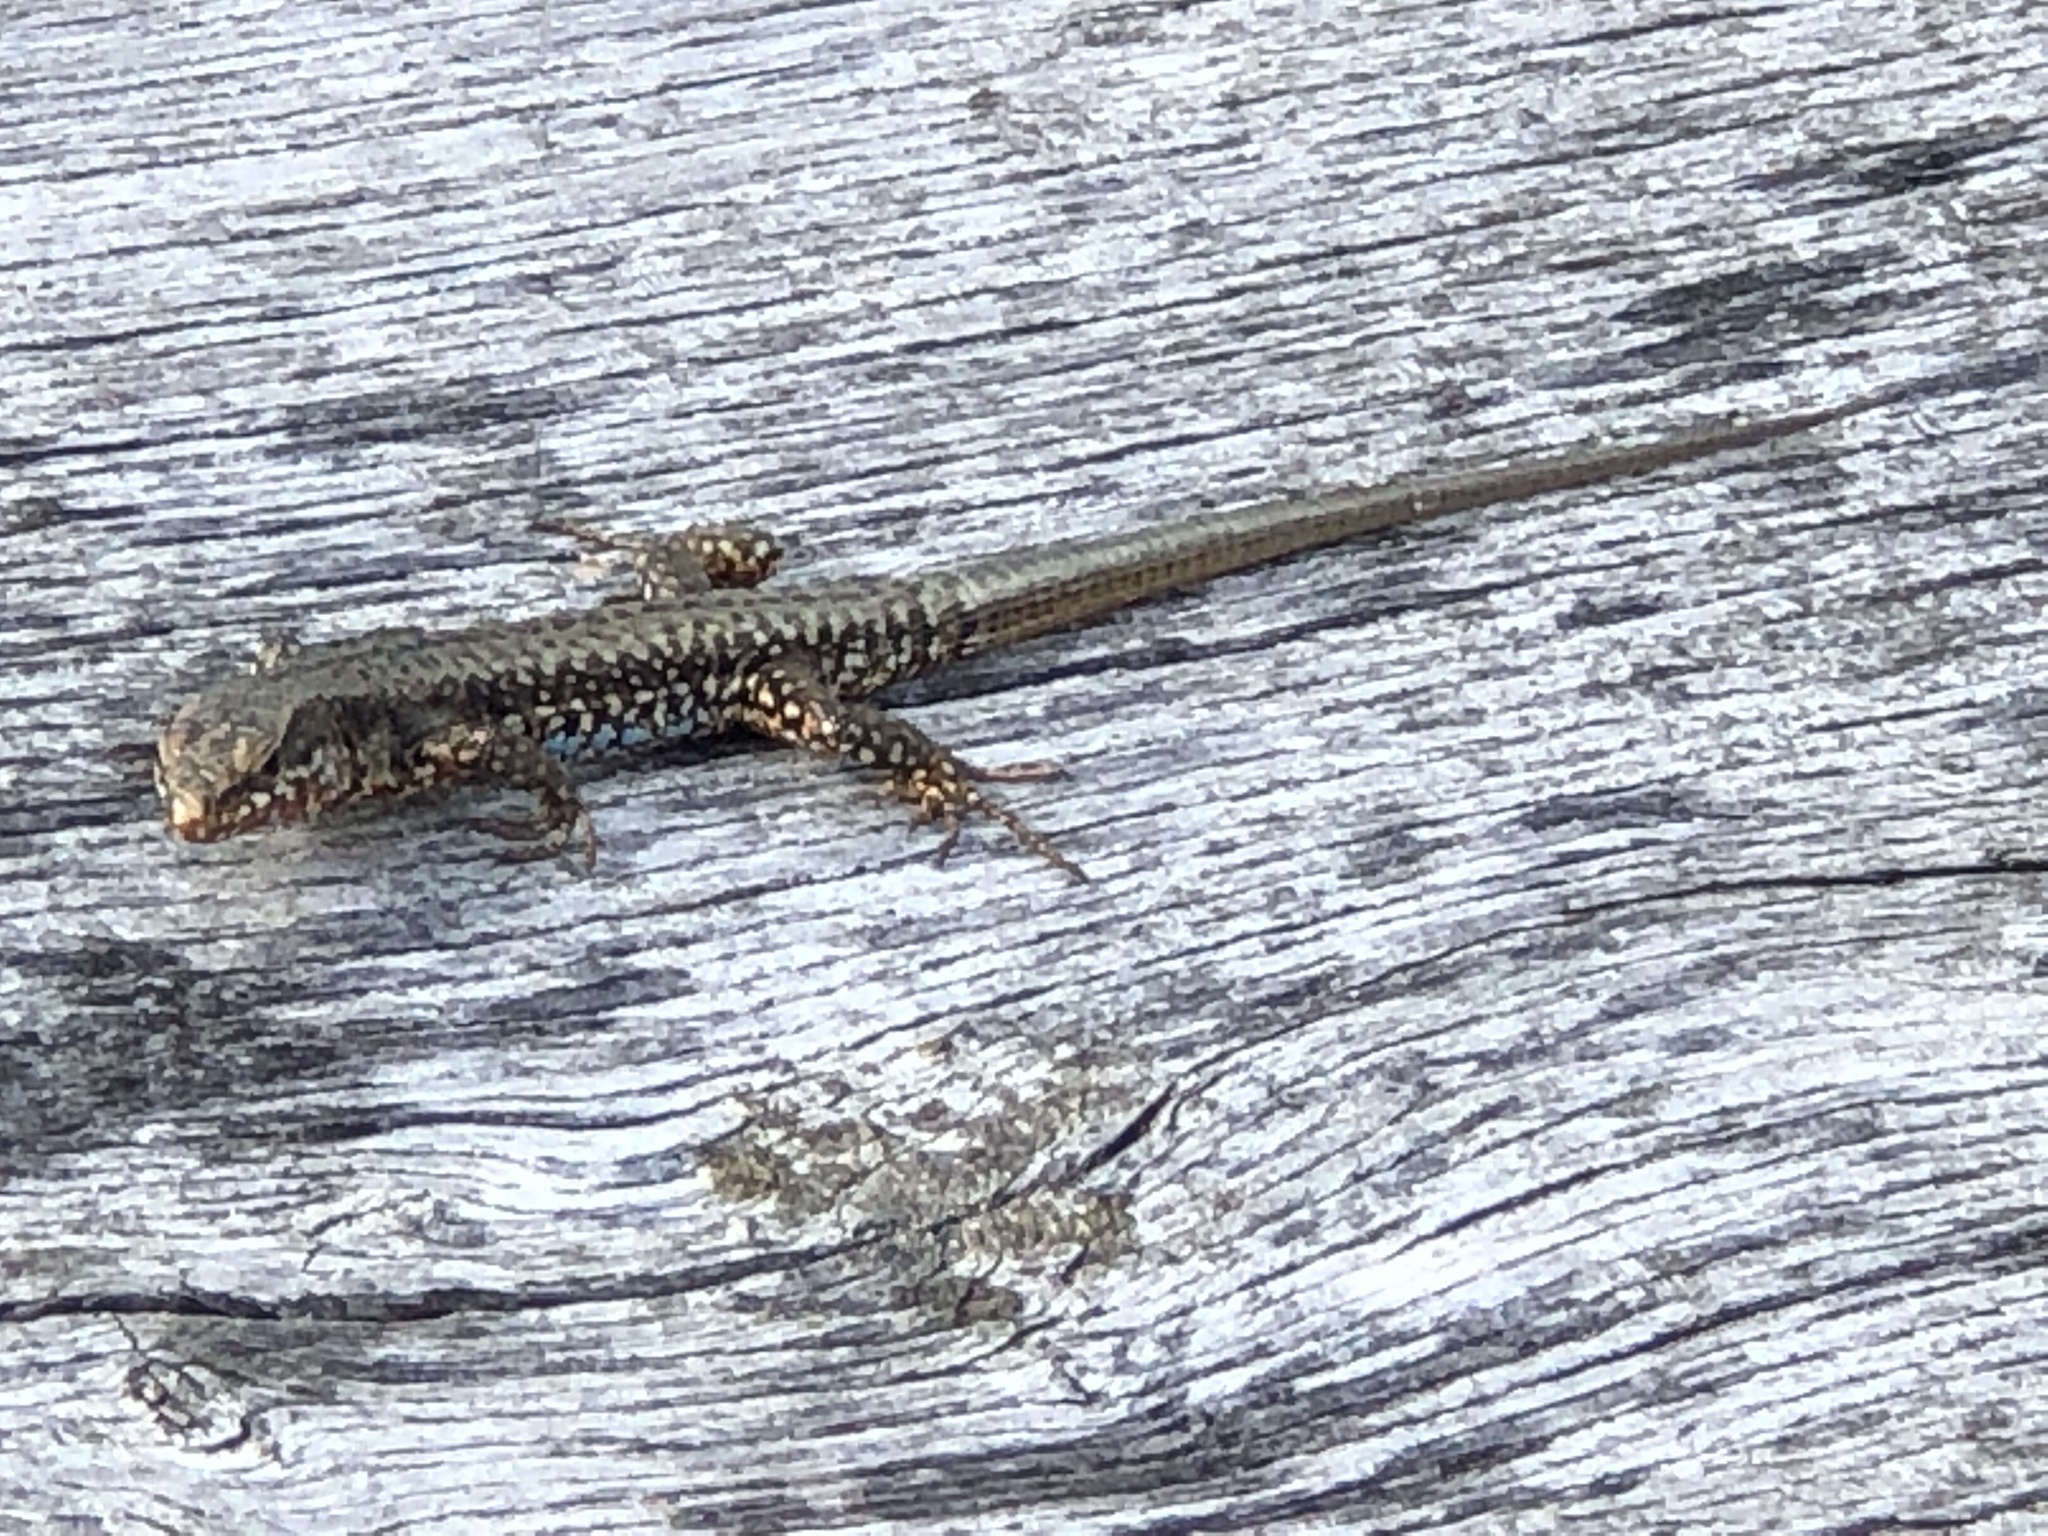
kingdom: Animalia
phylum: Chordata
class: Squamata
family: Lacertidae
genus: Podarcis
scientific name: Podarcis muralis
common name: Common wall lizard
